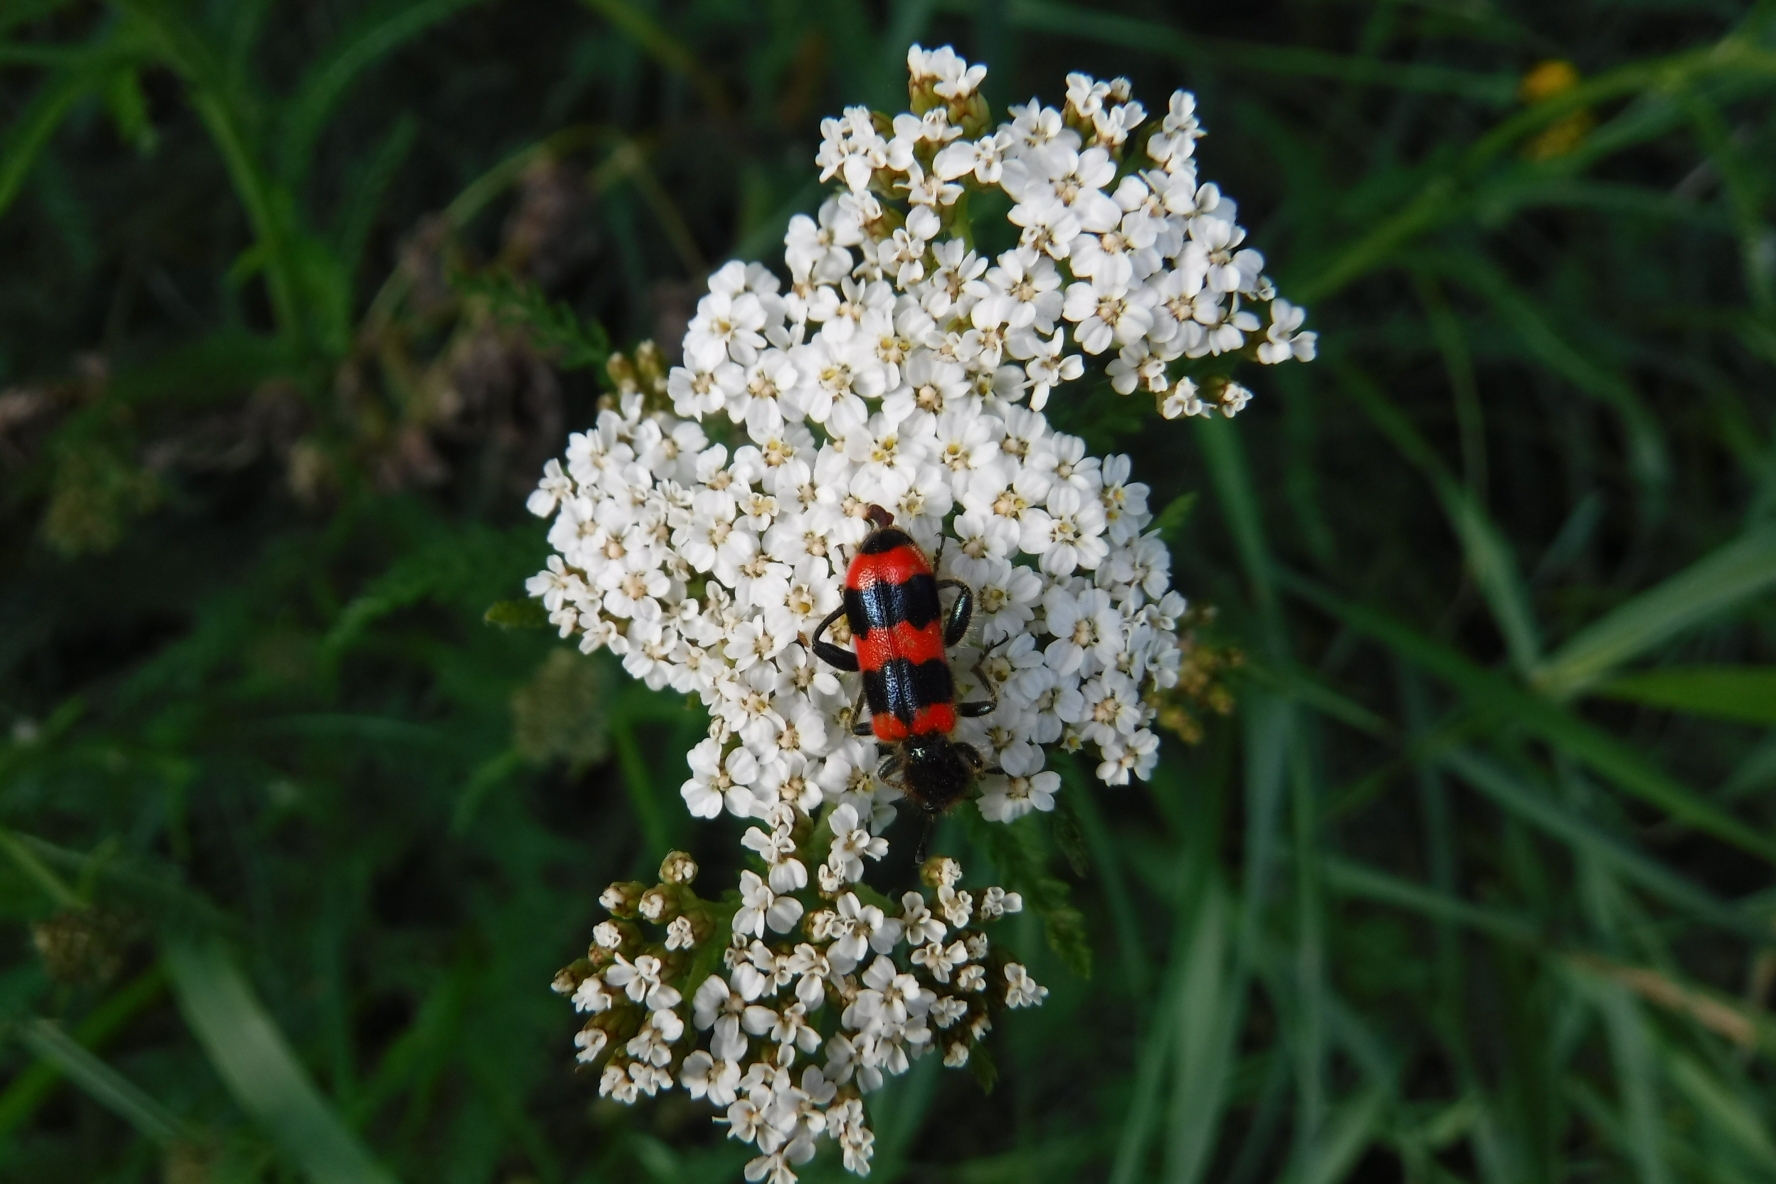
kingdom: Animalia
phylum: Arthropoda
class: Insecta
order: Coleoptera
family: Cleridae
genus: Trichodes
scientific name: Trichodes apiarius
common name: Bee-eating beetle
